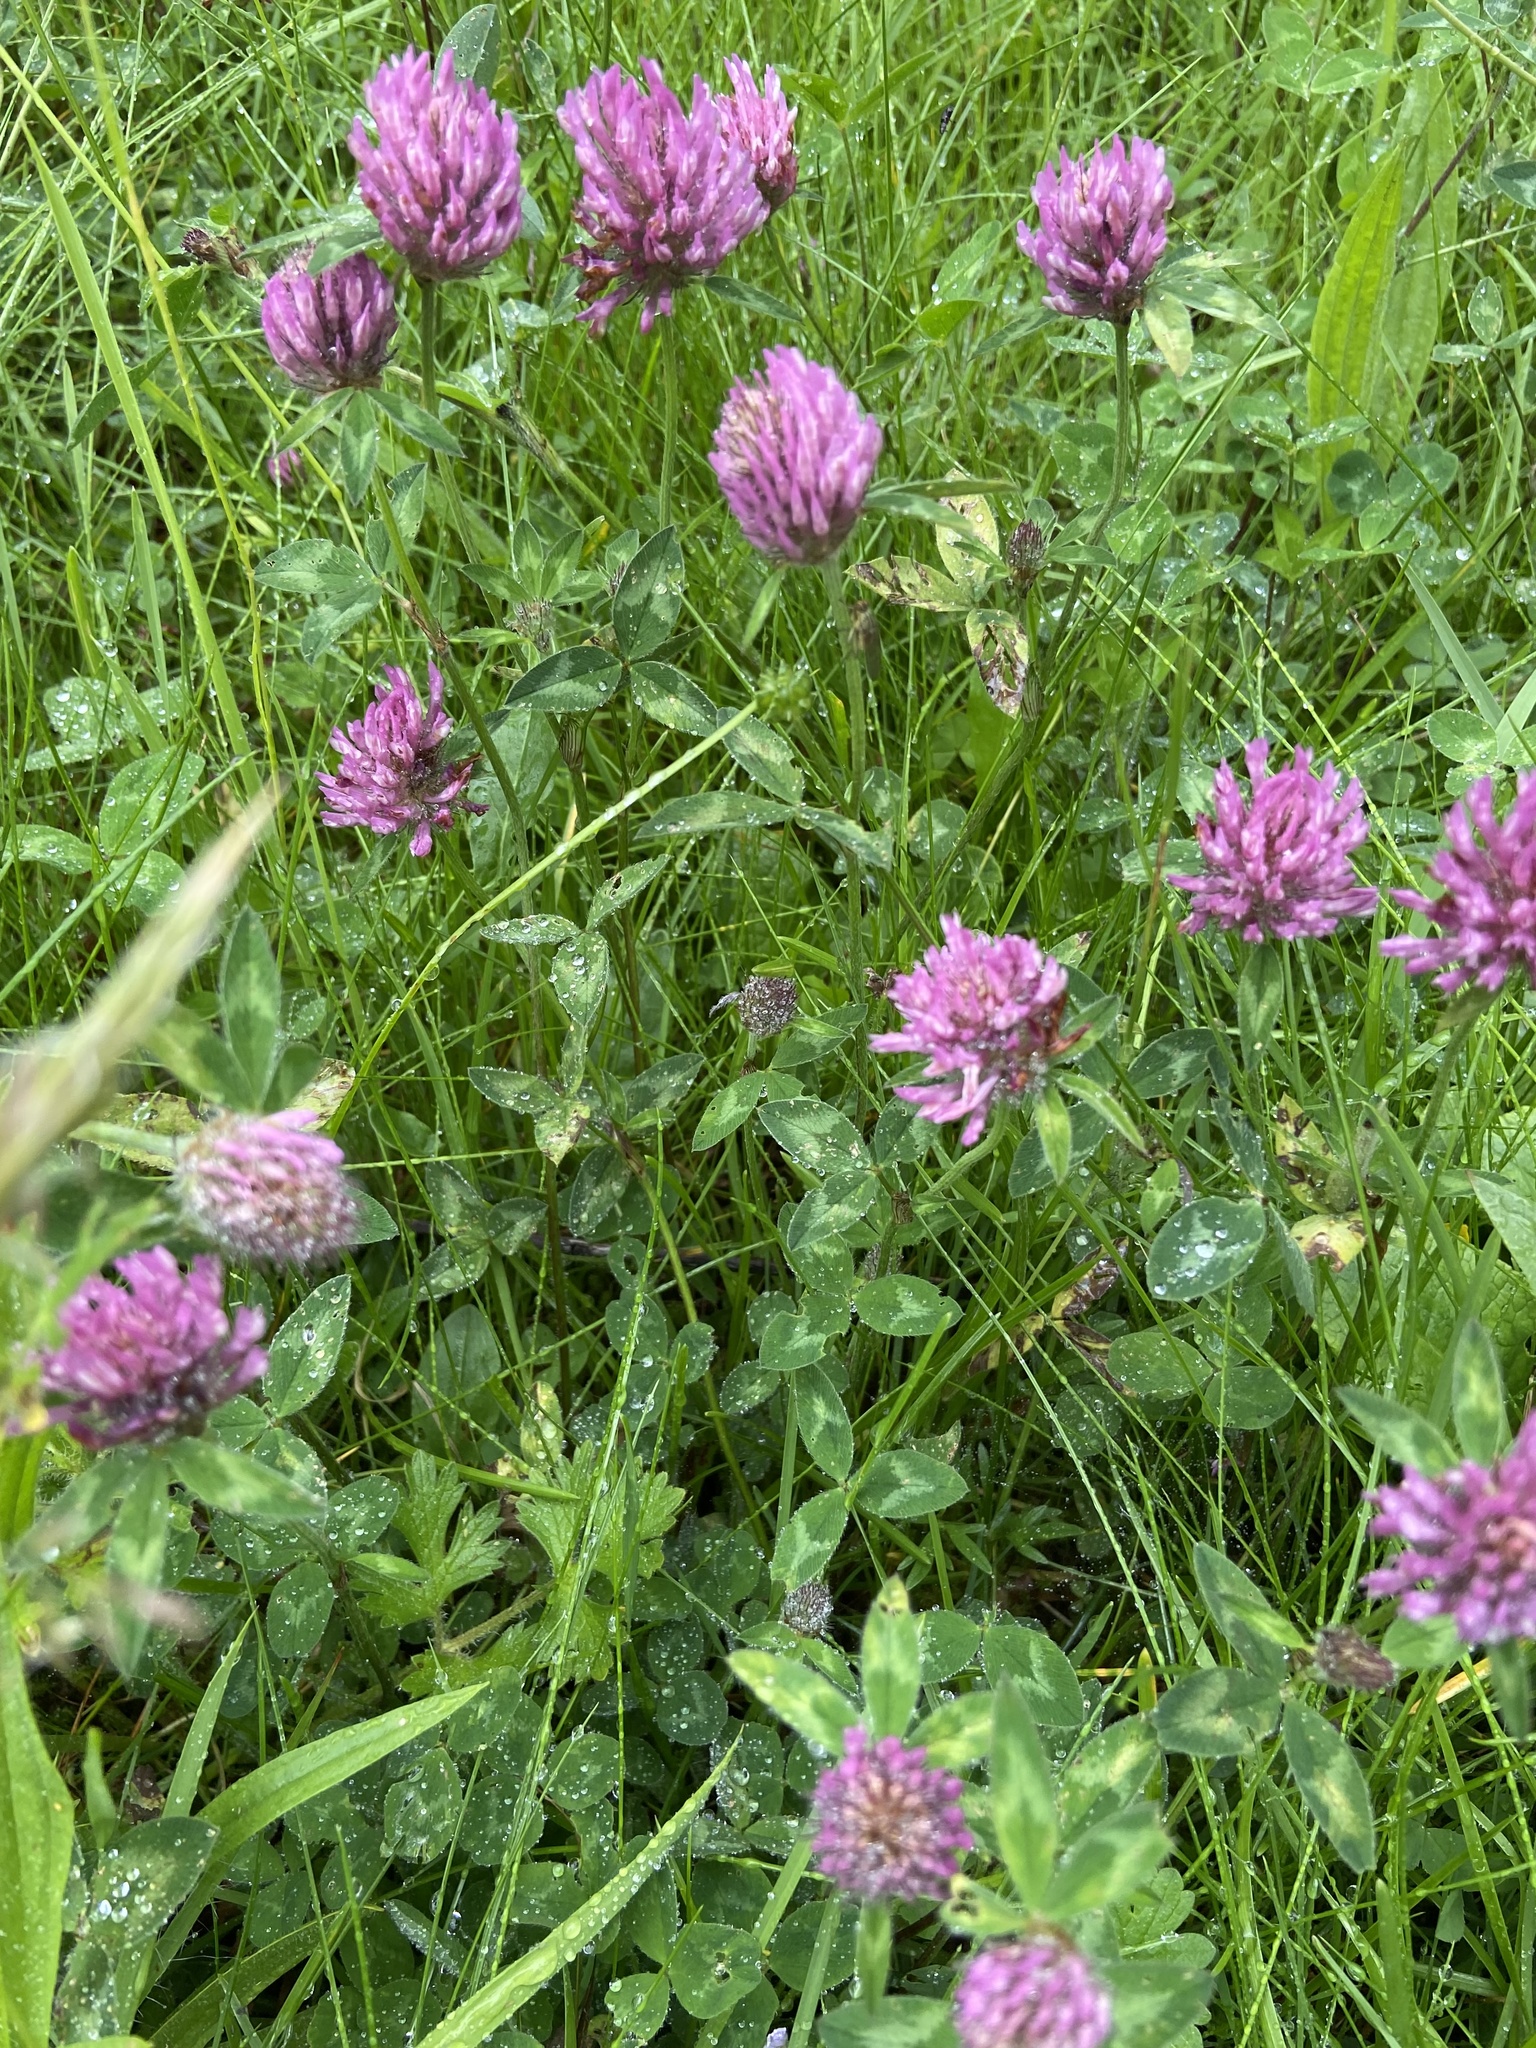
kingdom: Plantae
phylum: Tracheophyta
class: Magnoliopsida
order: Fabales
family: Fabaceae
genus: Trifolium
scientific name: Trifolium pratense
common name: Red clover
